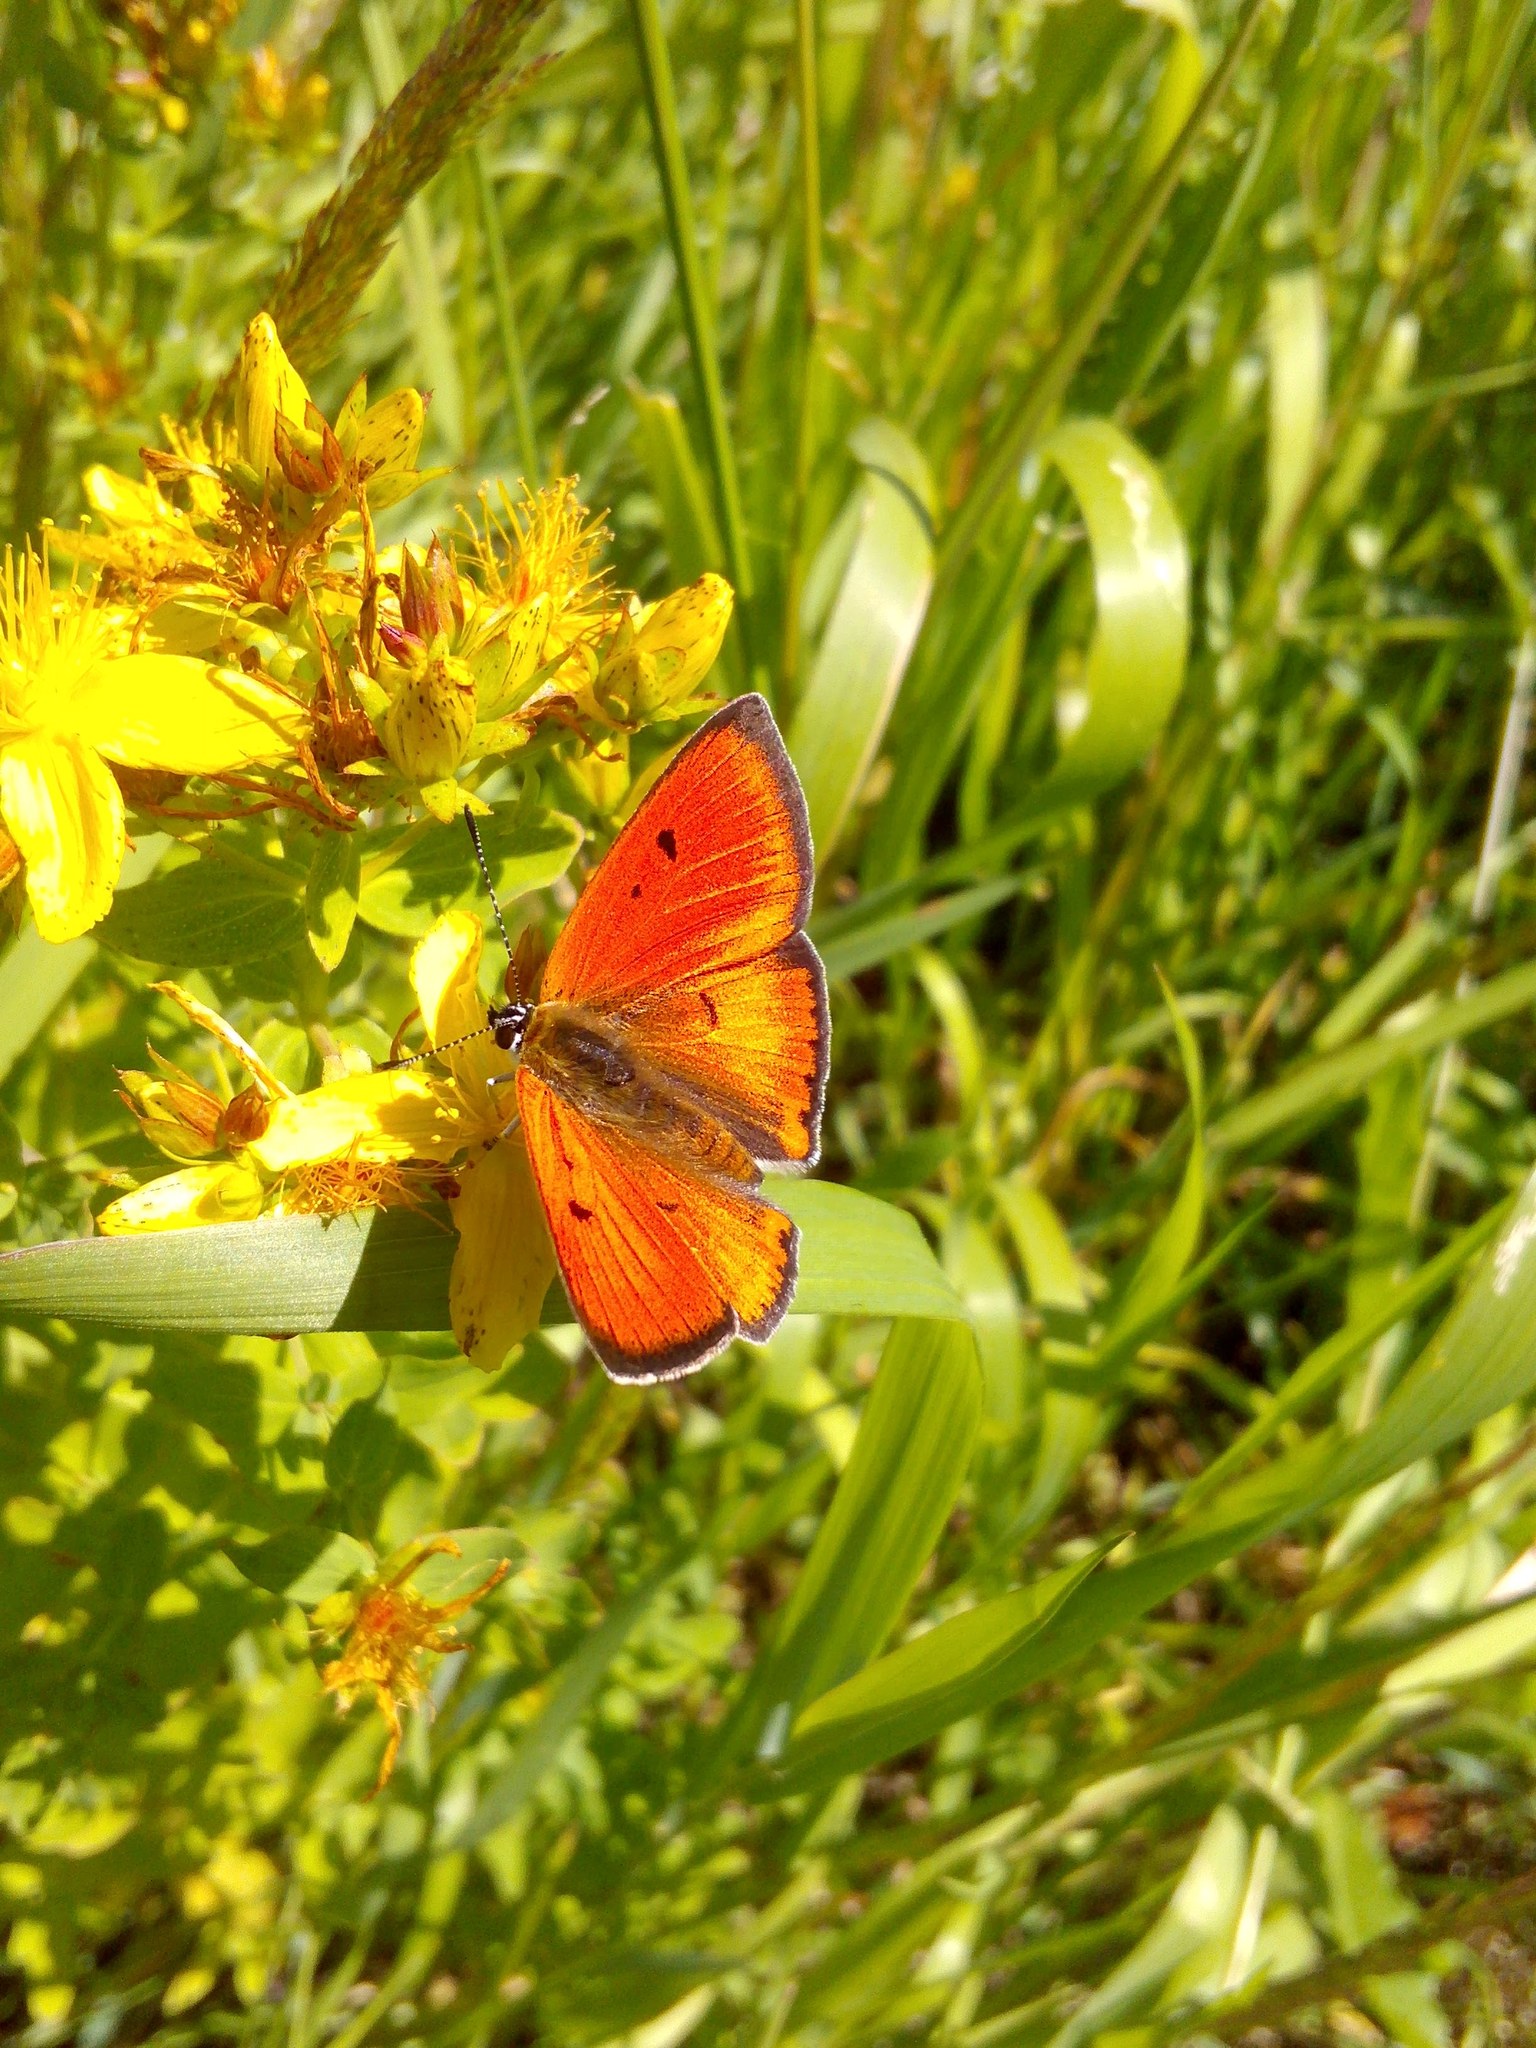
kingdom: Animalia
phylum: Arthropoda
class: Insecta
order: Lepidoptera
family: Lycaenidae
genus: Lycaena
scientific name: Lycaena dispar
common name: Large copper
